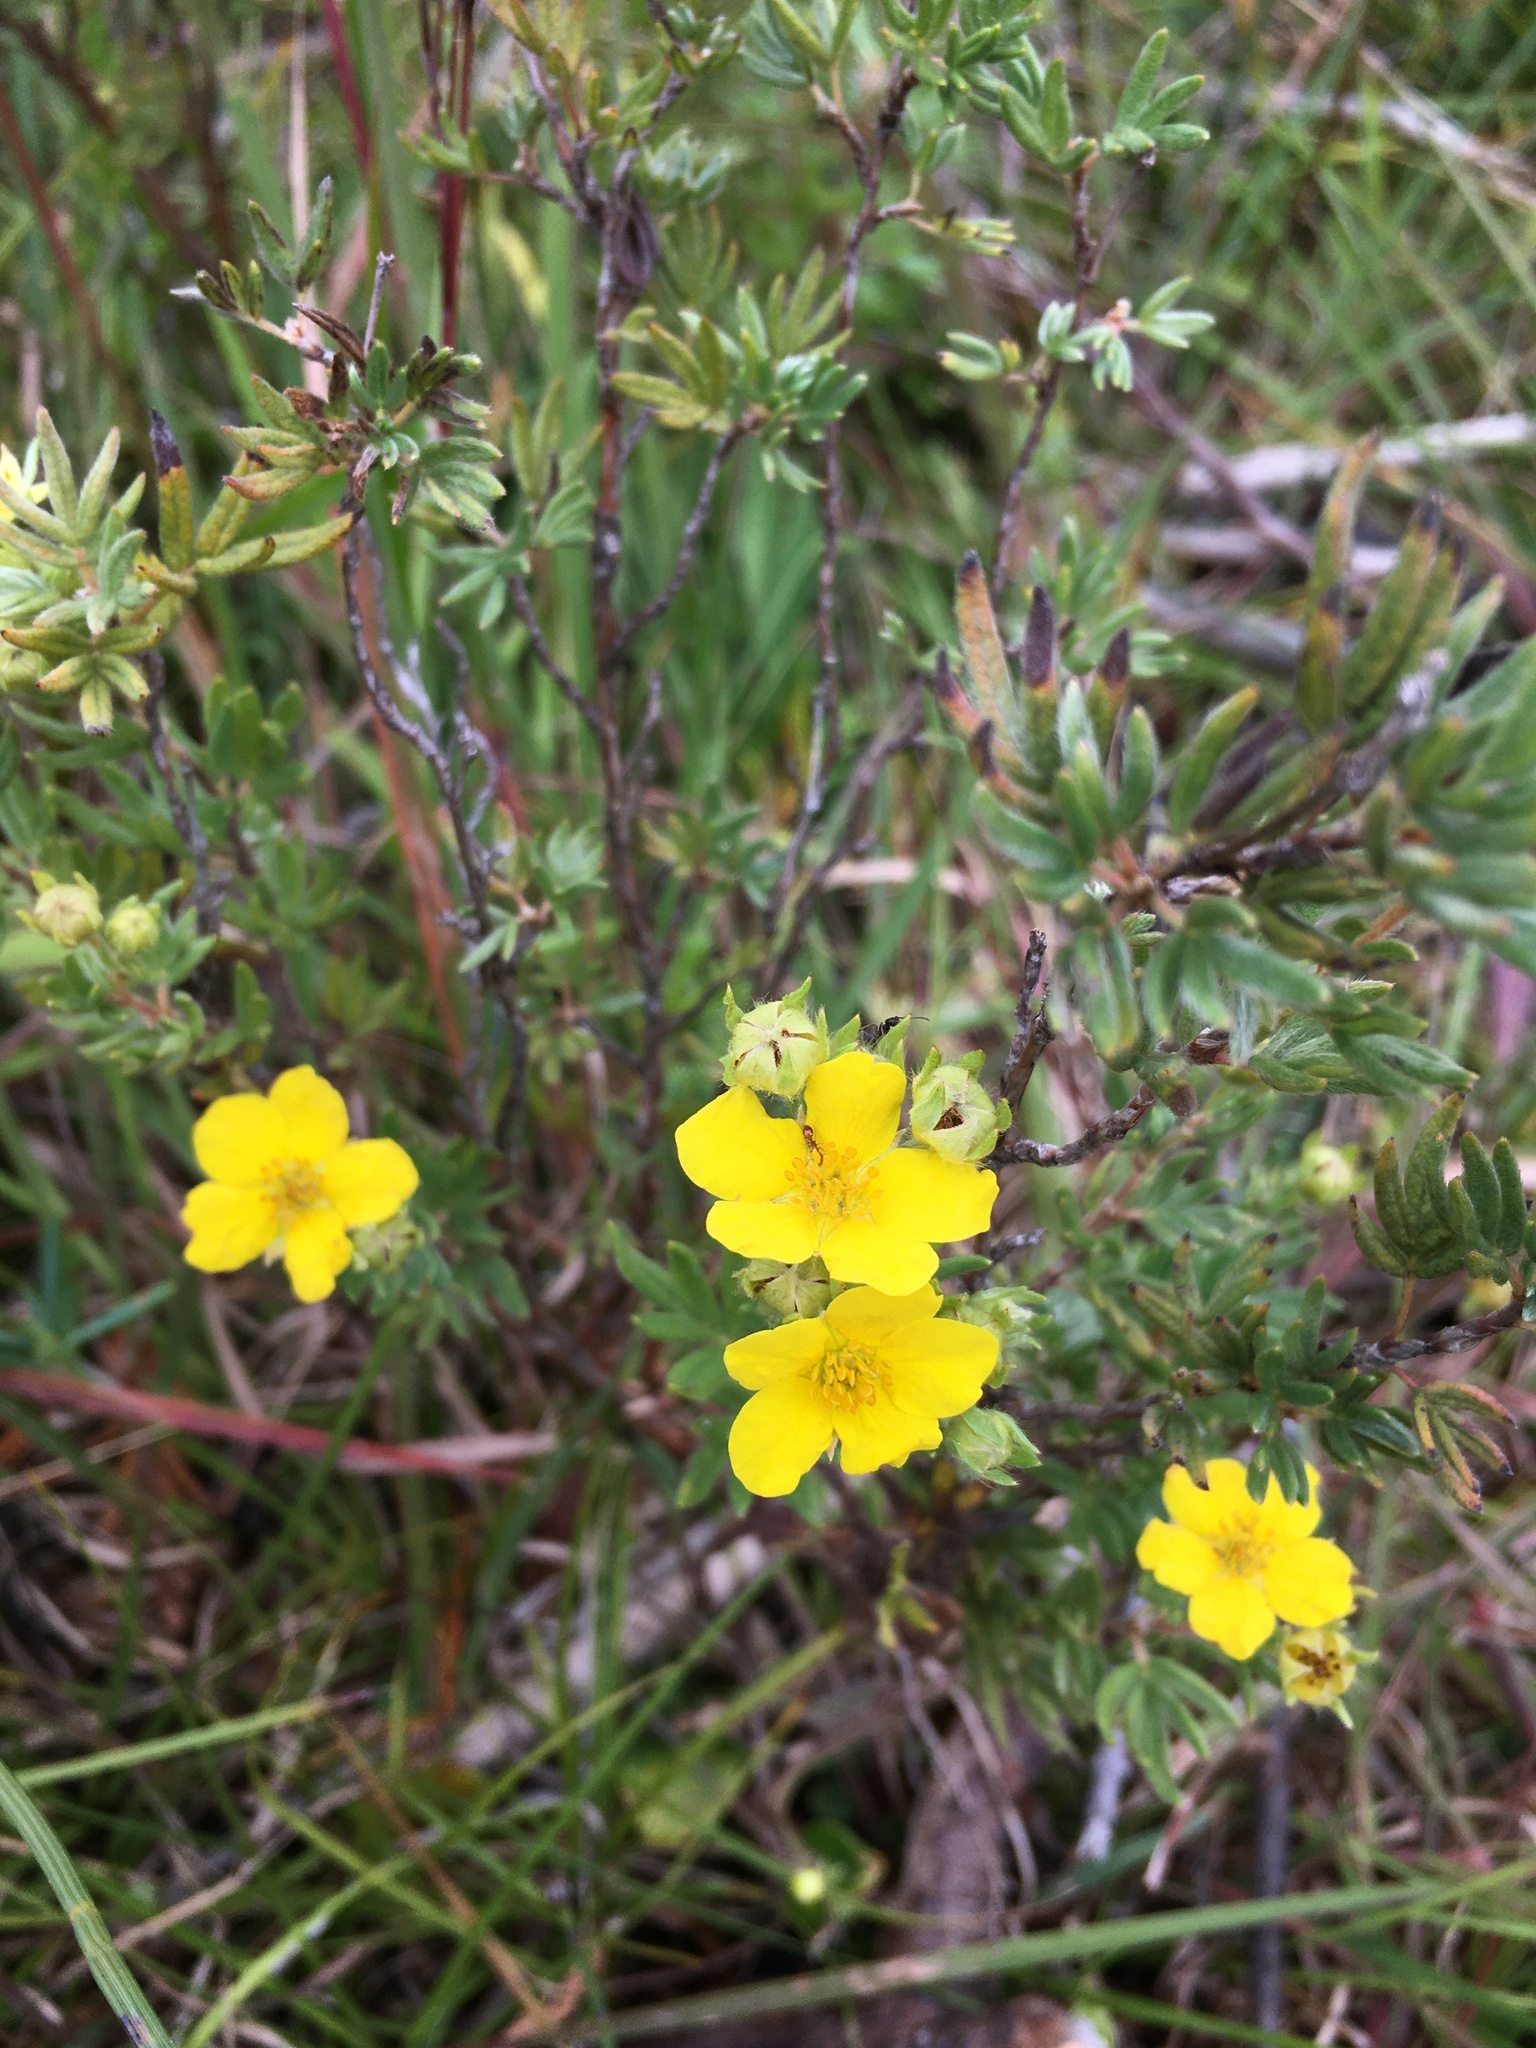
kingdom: Plantae
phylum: Tracheophyta
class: Magnoliopsida
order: Rosales
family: Rosaceae
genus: Dasiphora
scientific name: Dasiphora fruticosa
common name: Shrubby cinquefoil
